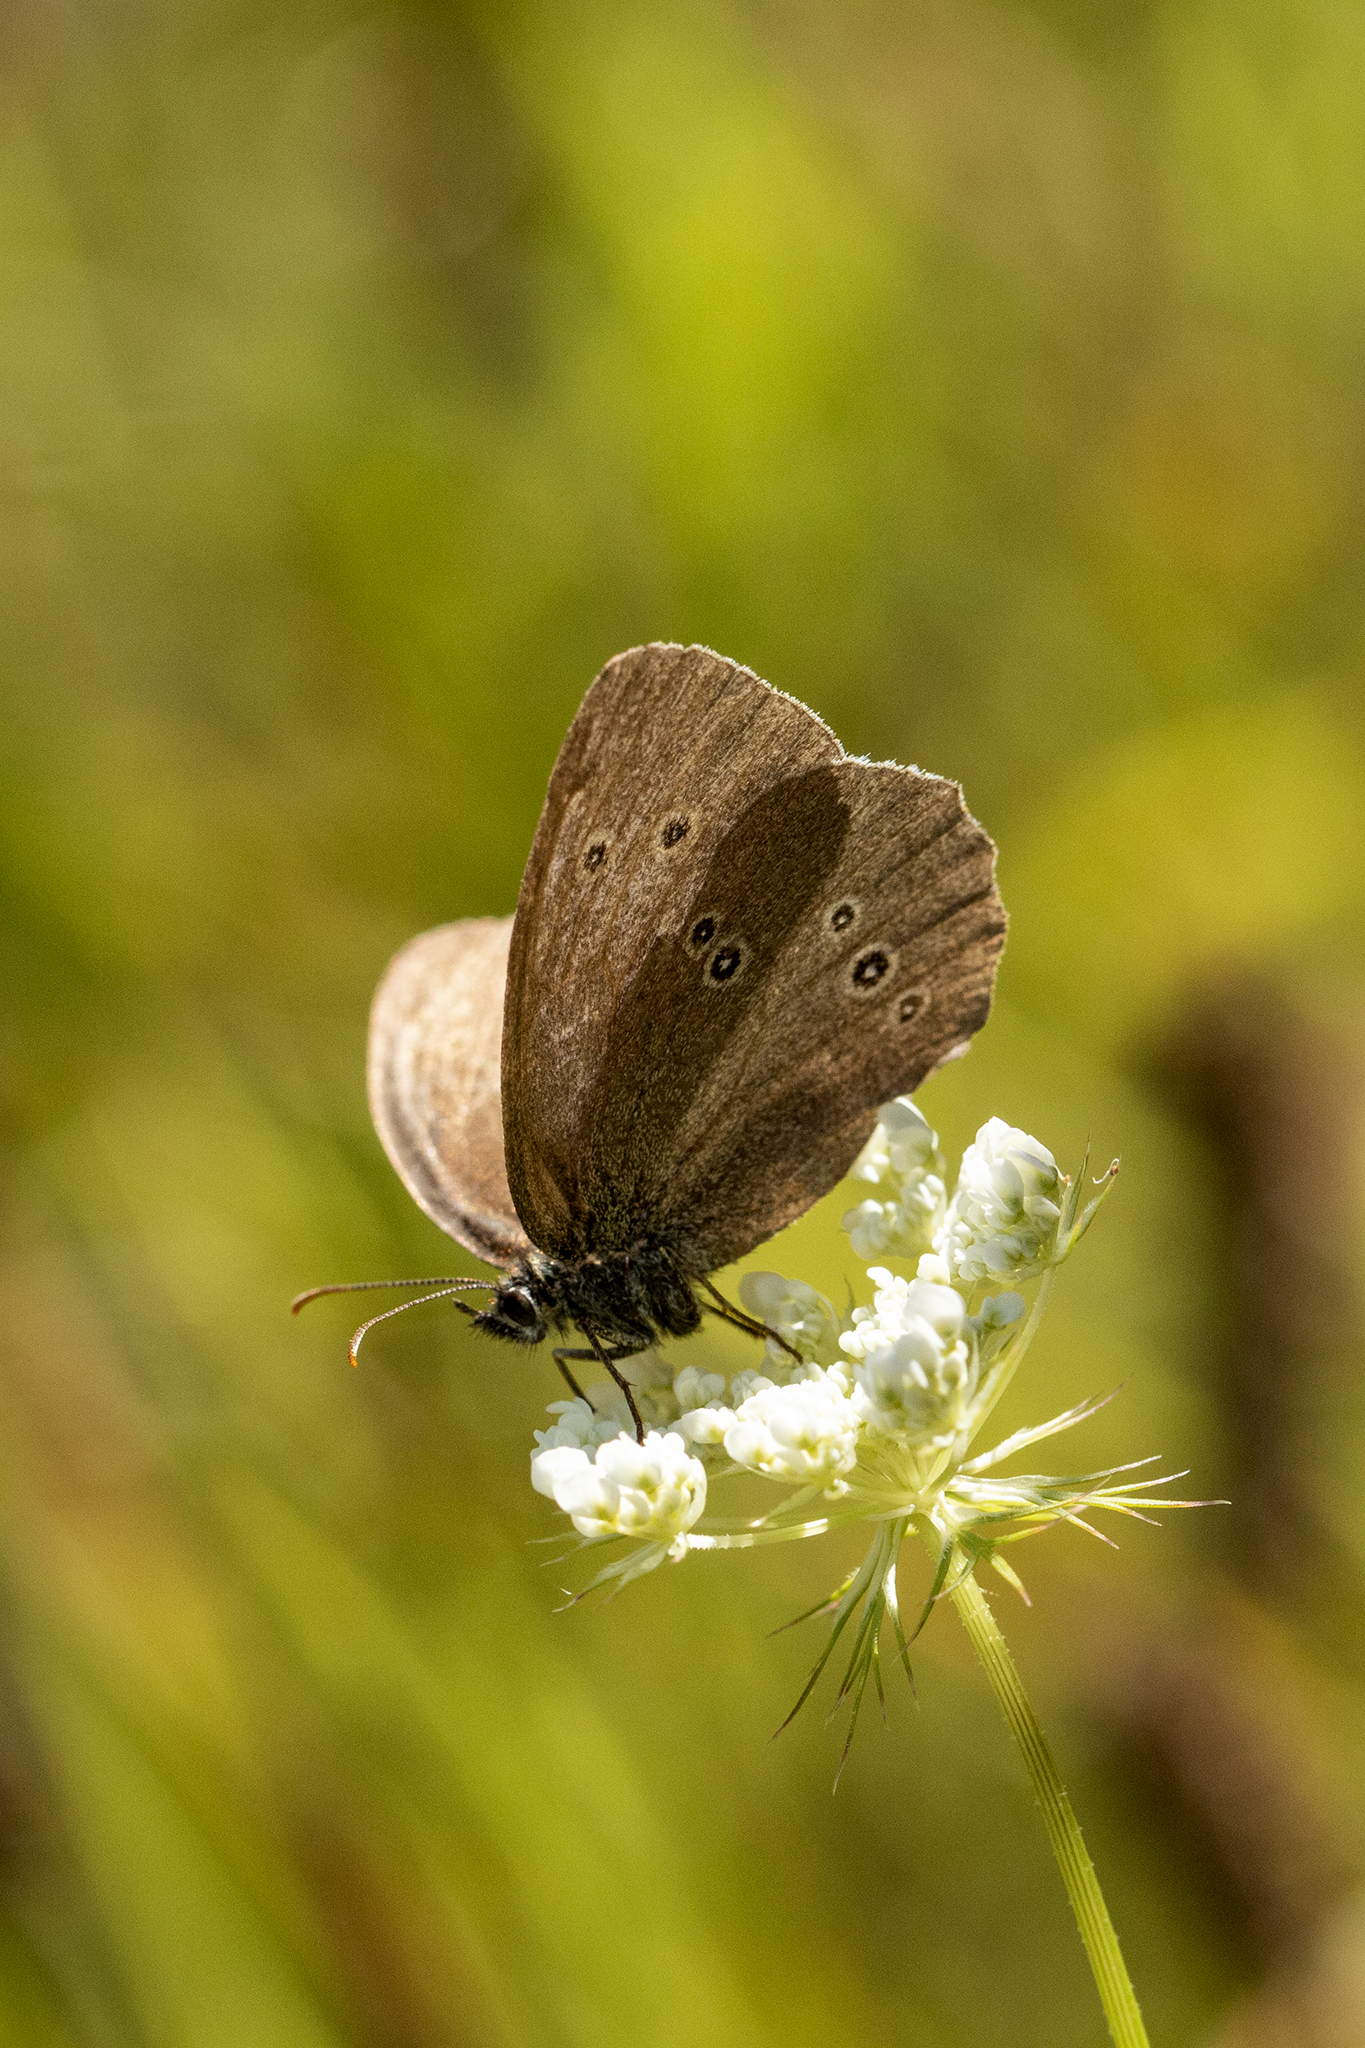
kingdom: Animalia
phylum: Arthropoda
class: Insecta
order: Lepidoptera
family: Nymphalidae
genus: Aphantopus
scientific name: Aphantopus hyperantus
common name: Ringlet
